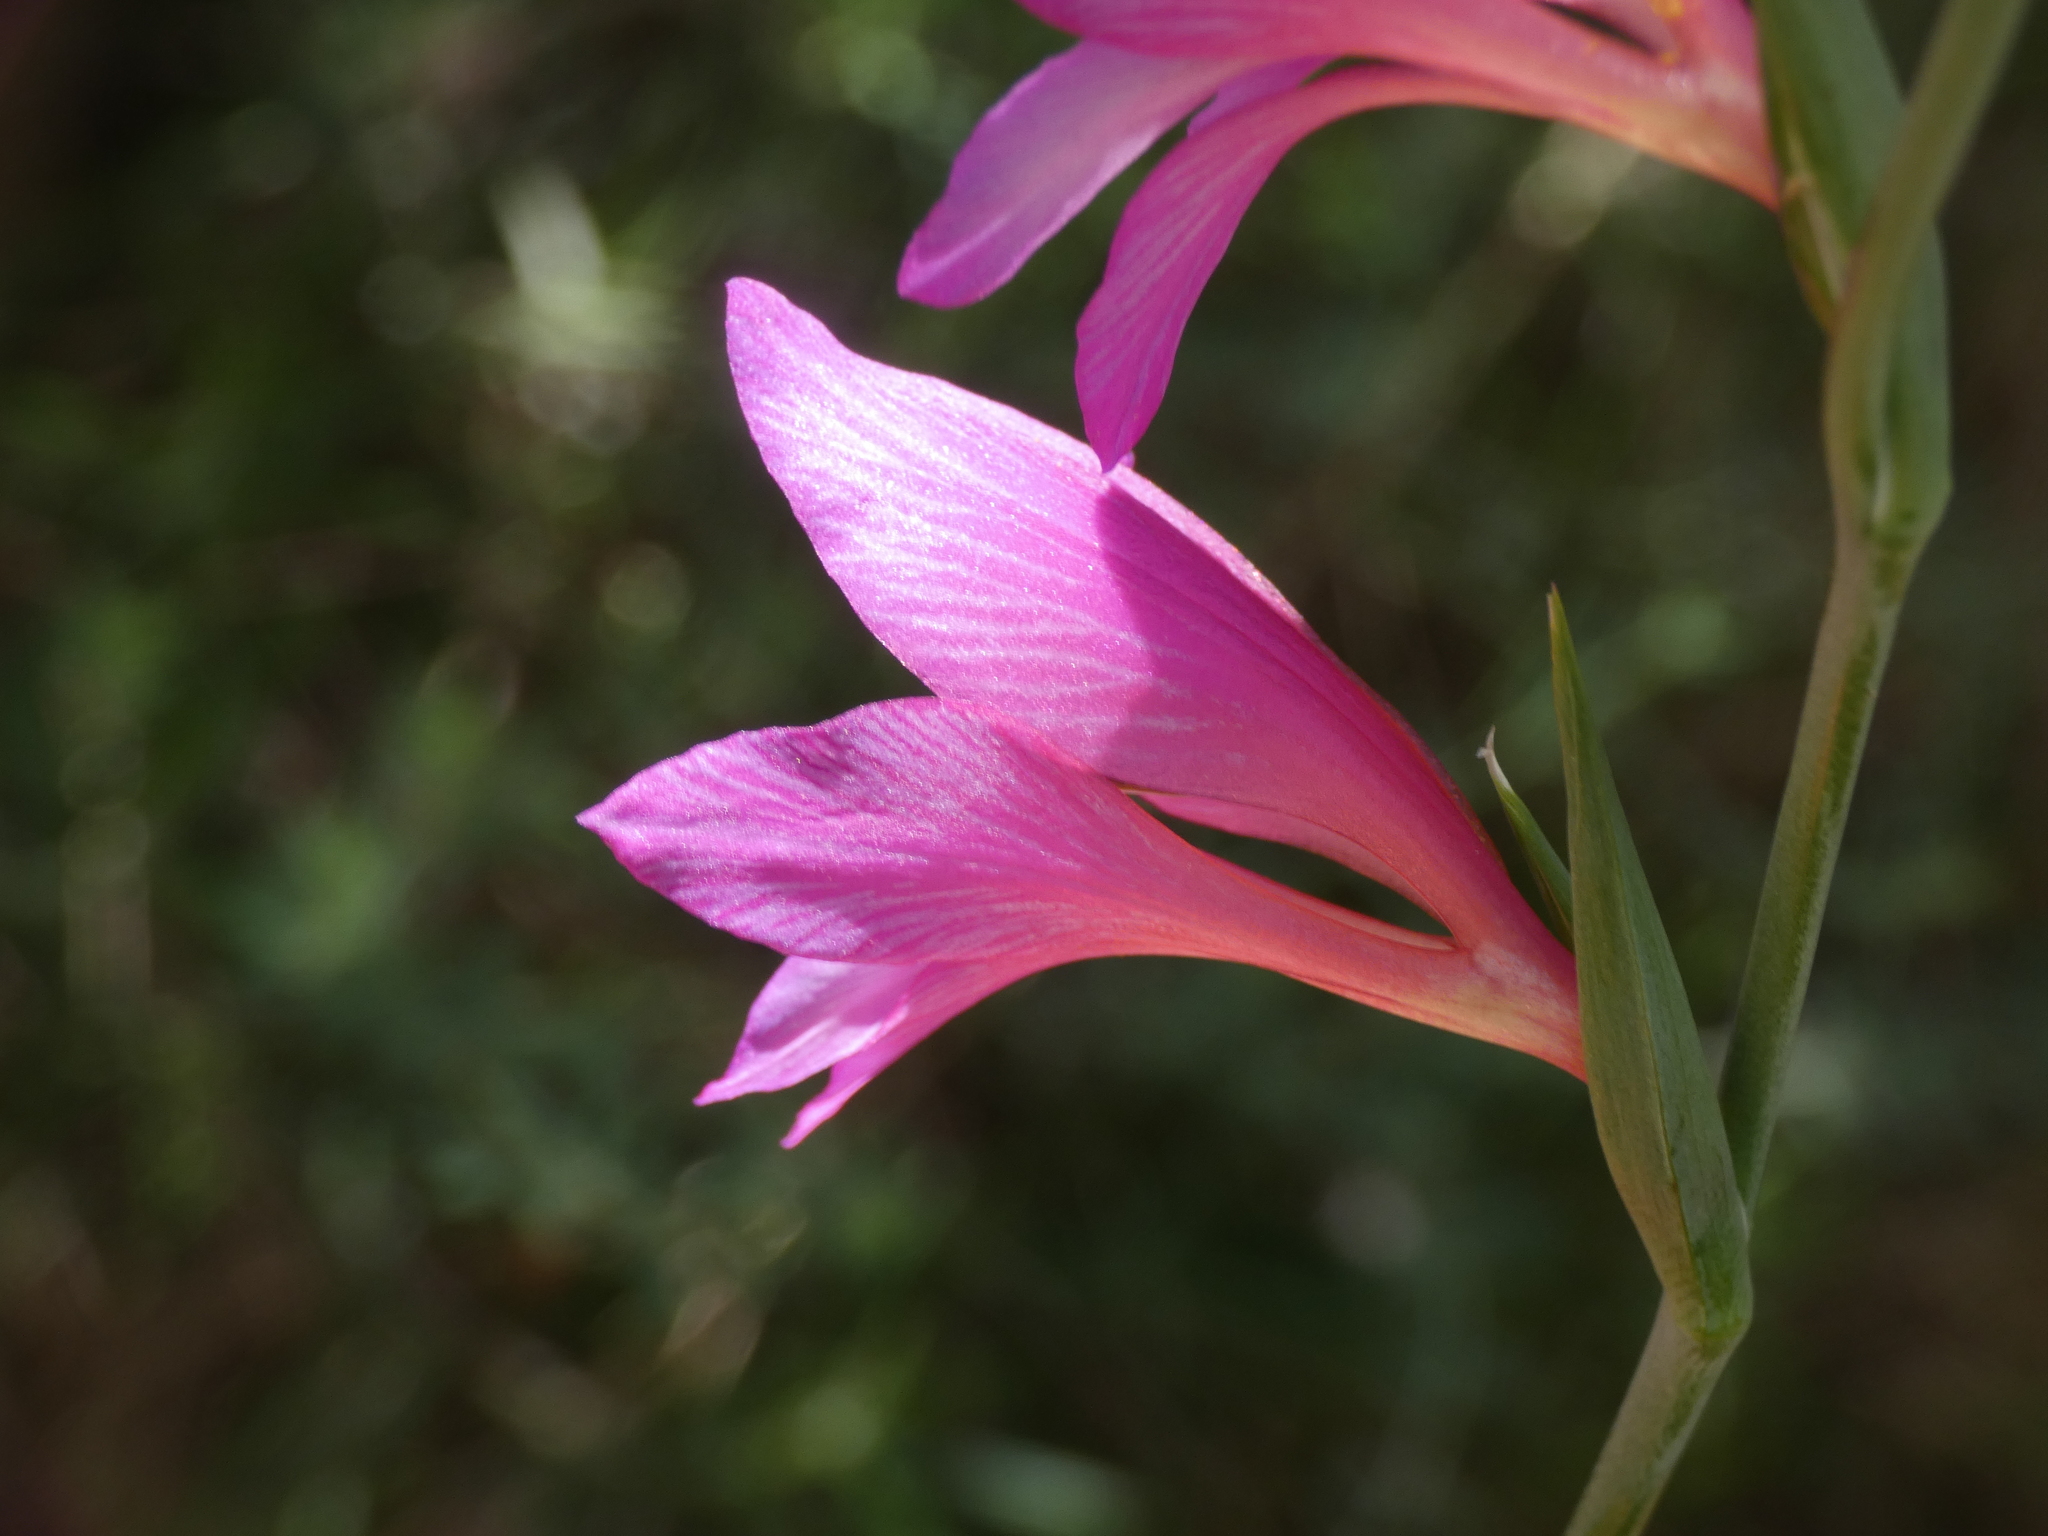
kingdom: Plantae
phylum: Tracheophyta
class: Liliopsida
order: Asparagales
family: Iridaceae
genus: Gladiolus
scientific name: Gladiolus dubius
